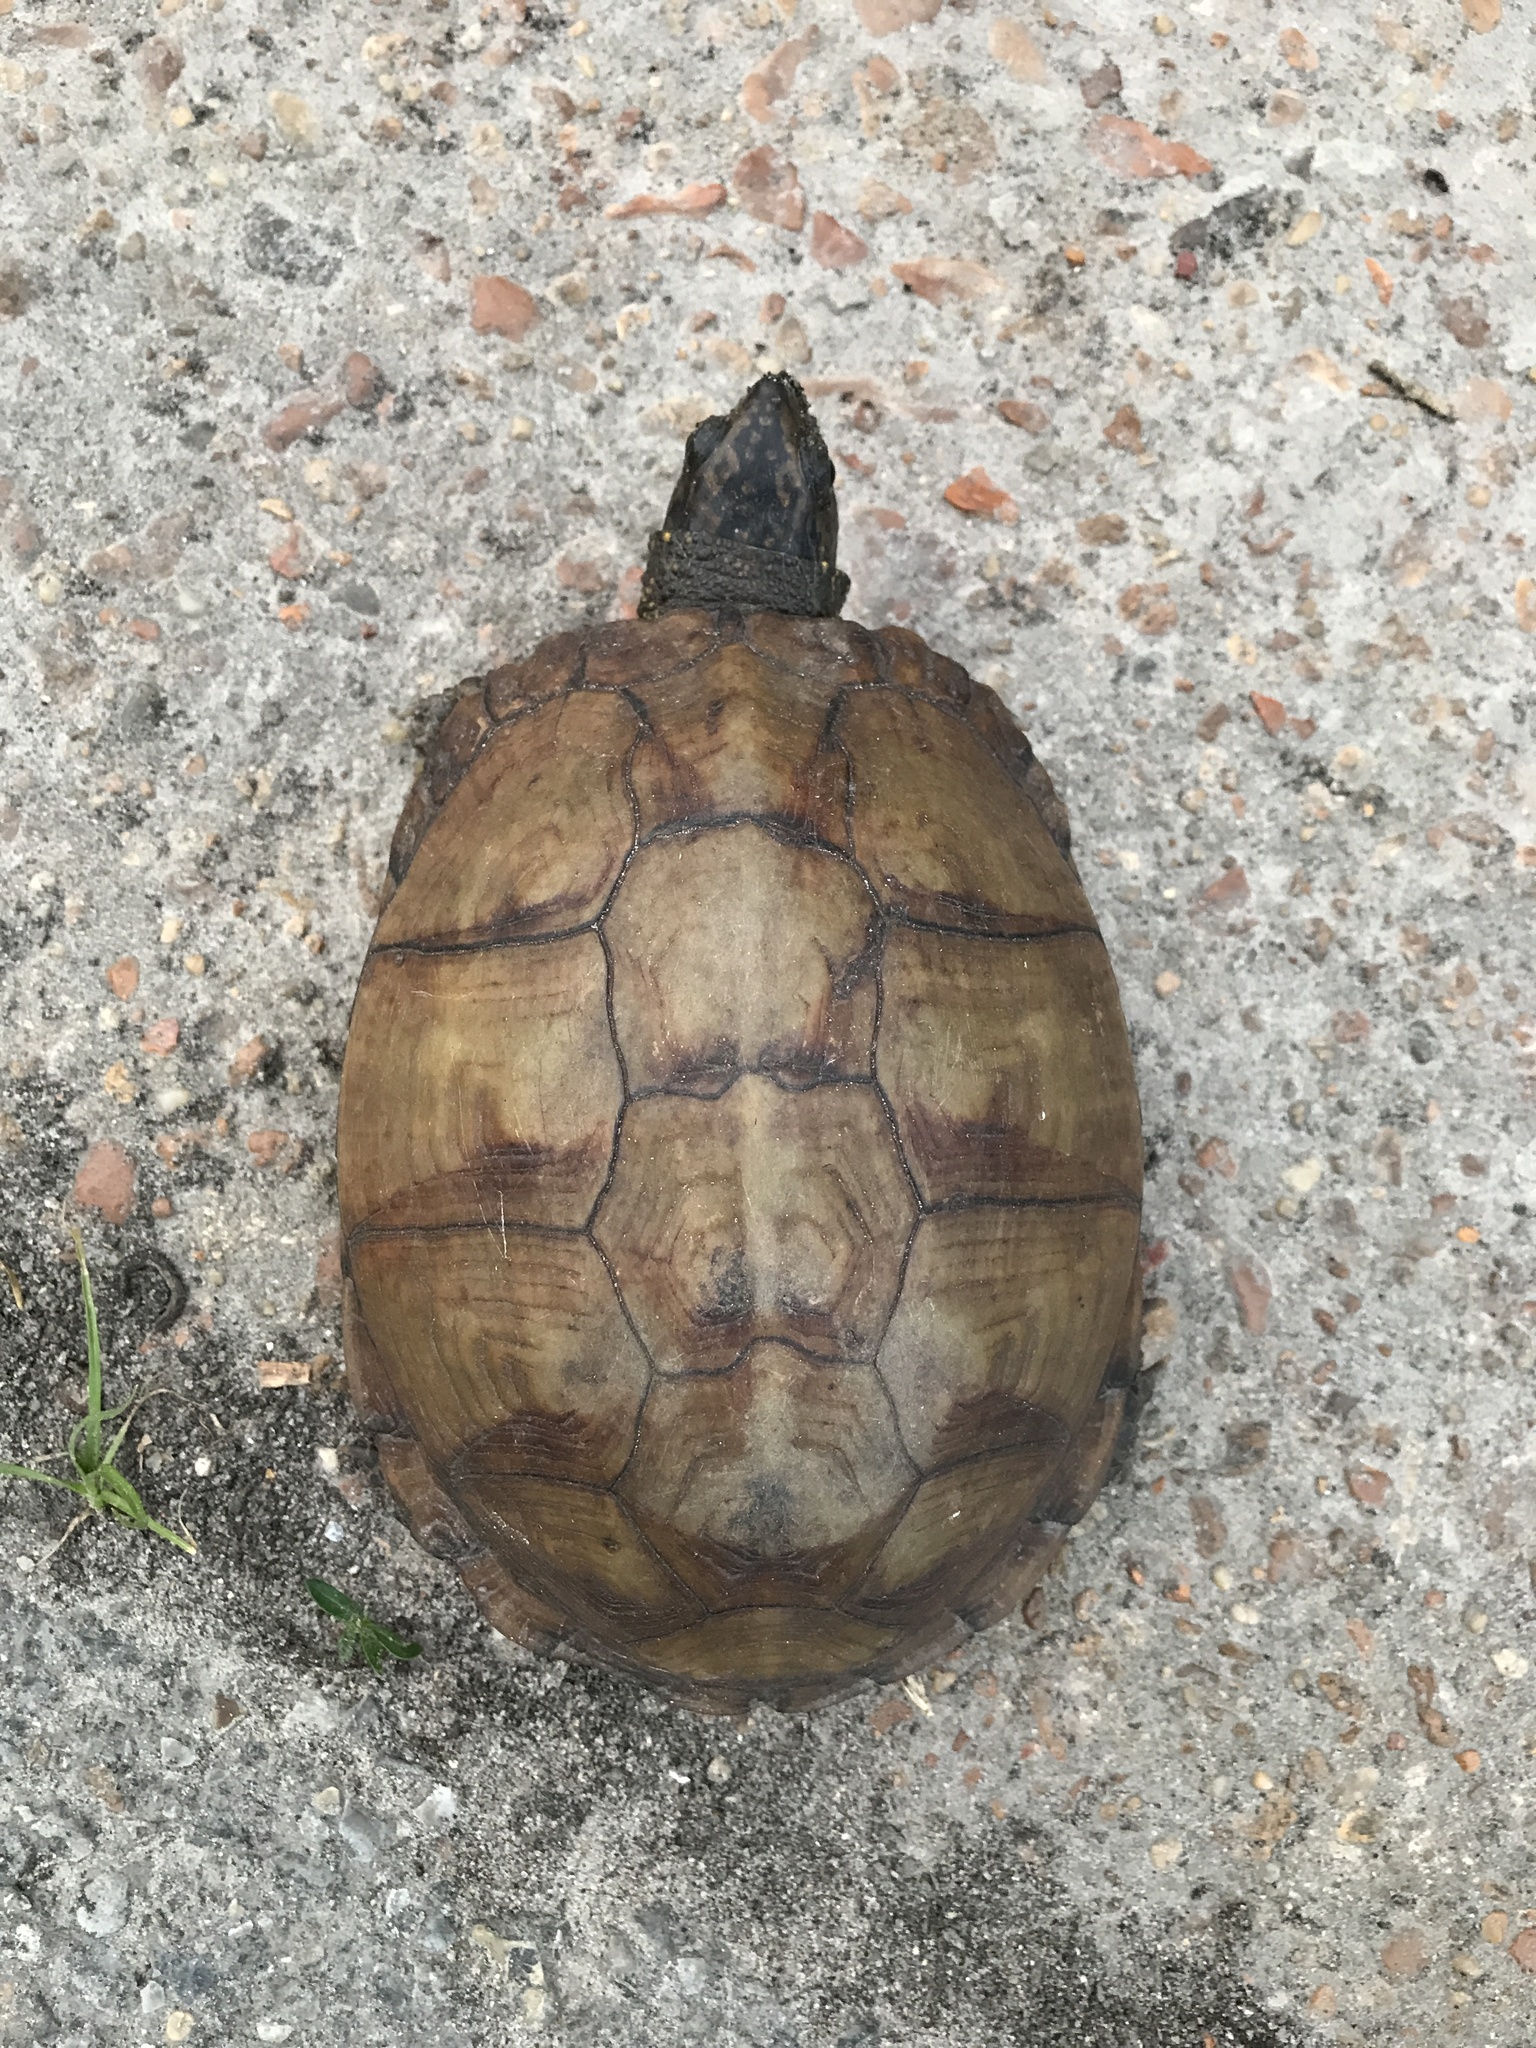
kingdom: Animalia
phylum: Chordata
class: Testudines
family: Emydidae
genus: Terrapene
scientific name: Terrapene carolina
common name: Common box turtle
